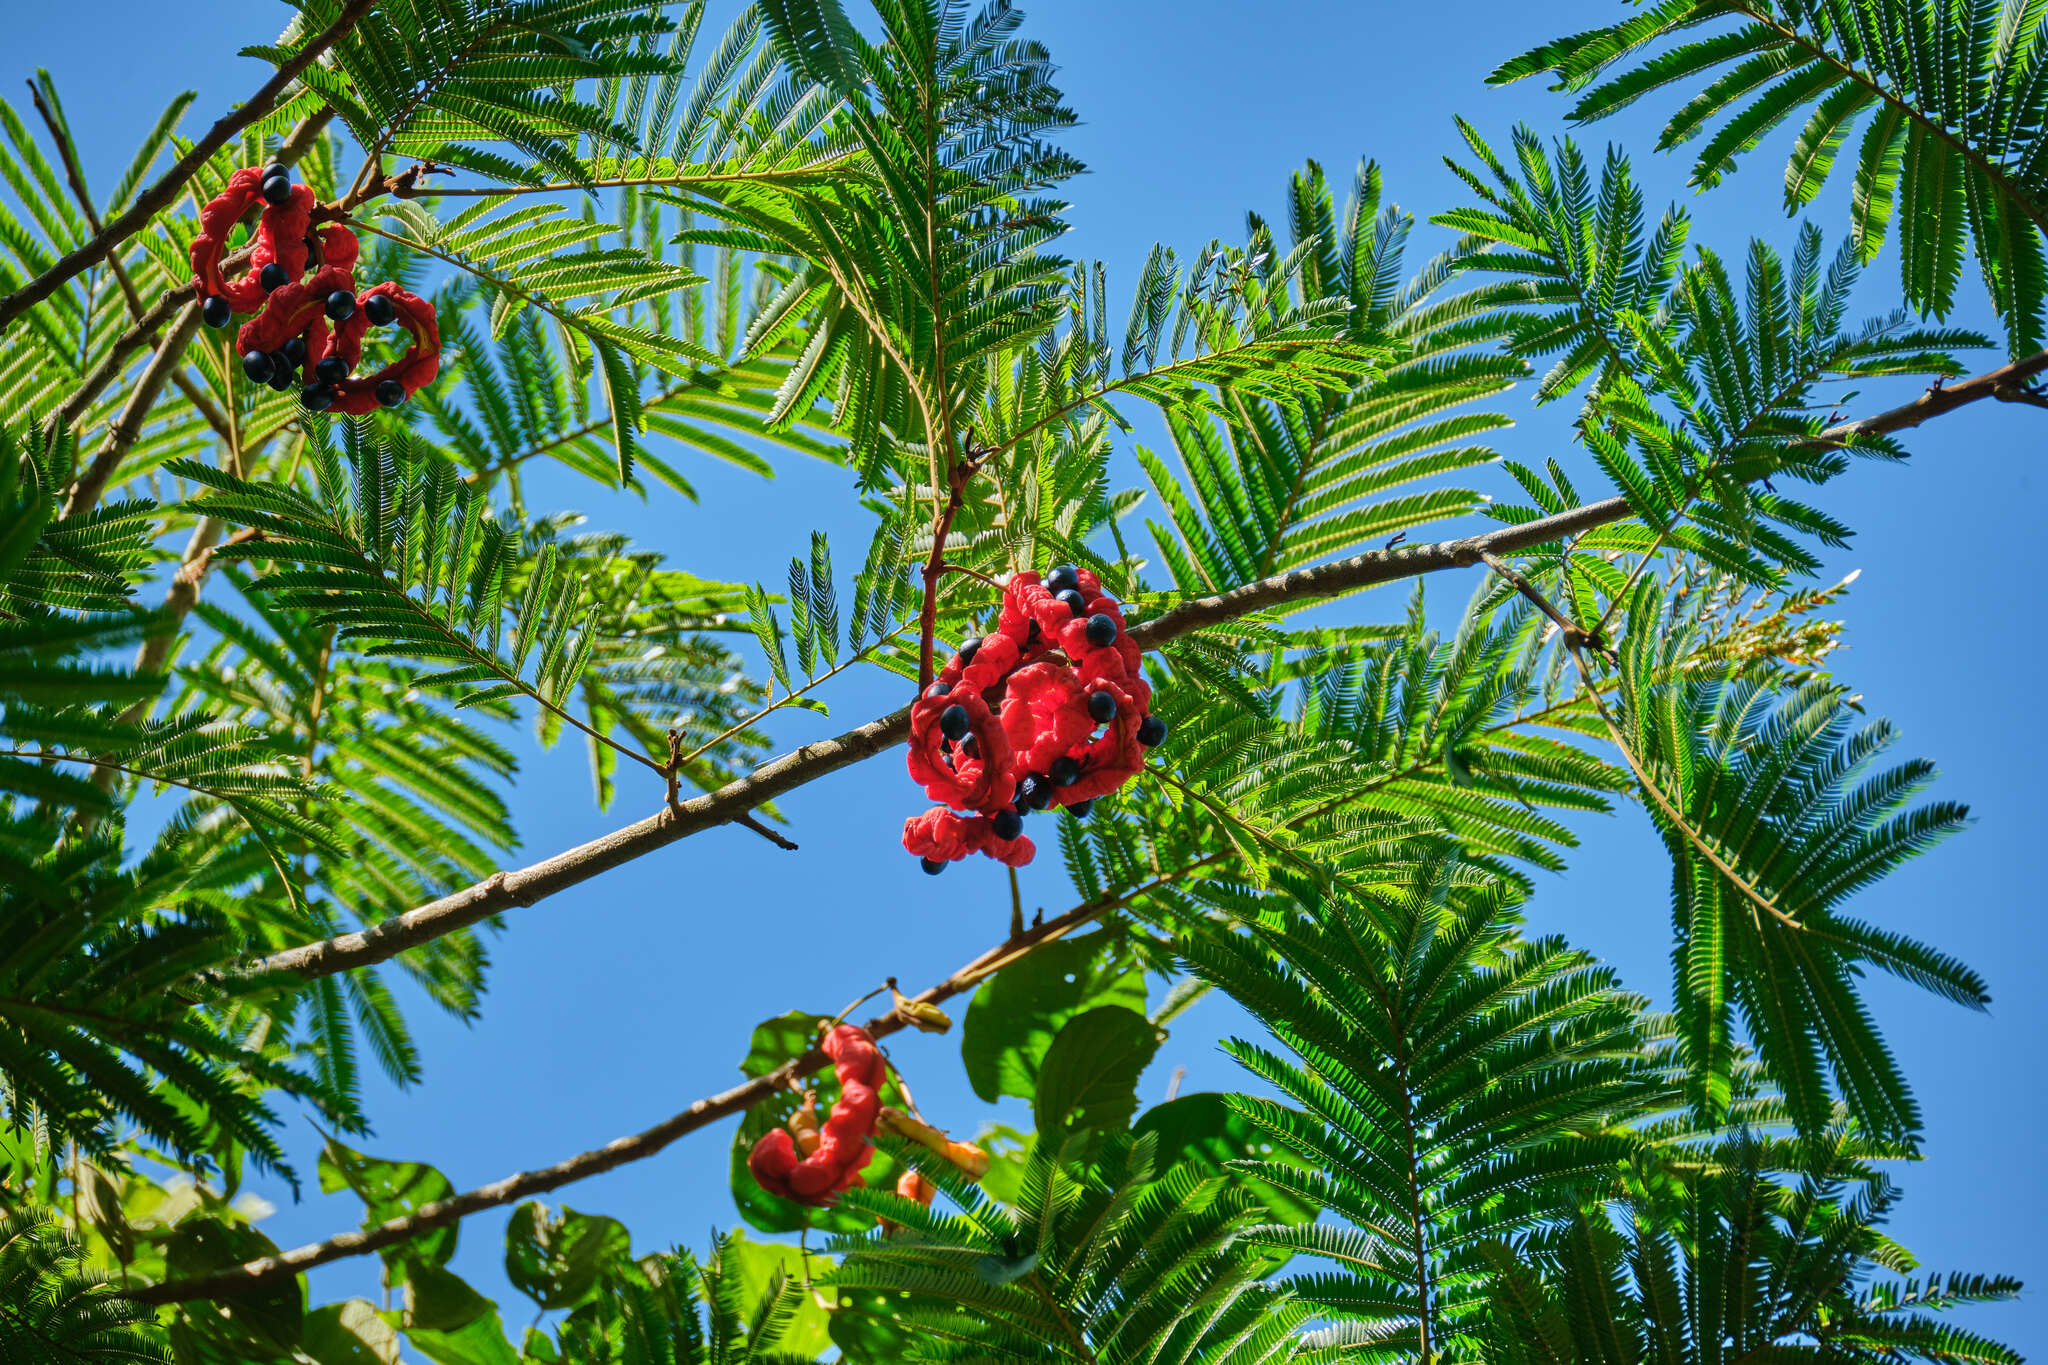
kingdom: Plantae
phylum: Tracheophyta
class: Magnoliopsida
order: Fabales
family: Fabaceae
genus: Cojoba
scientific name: Cojoba arborea
